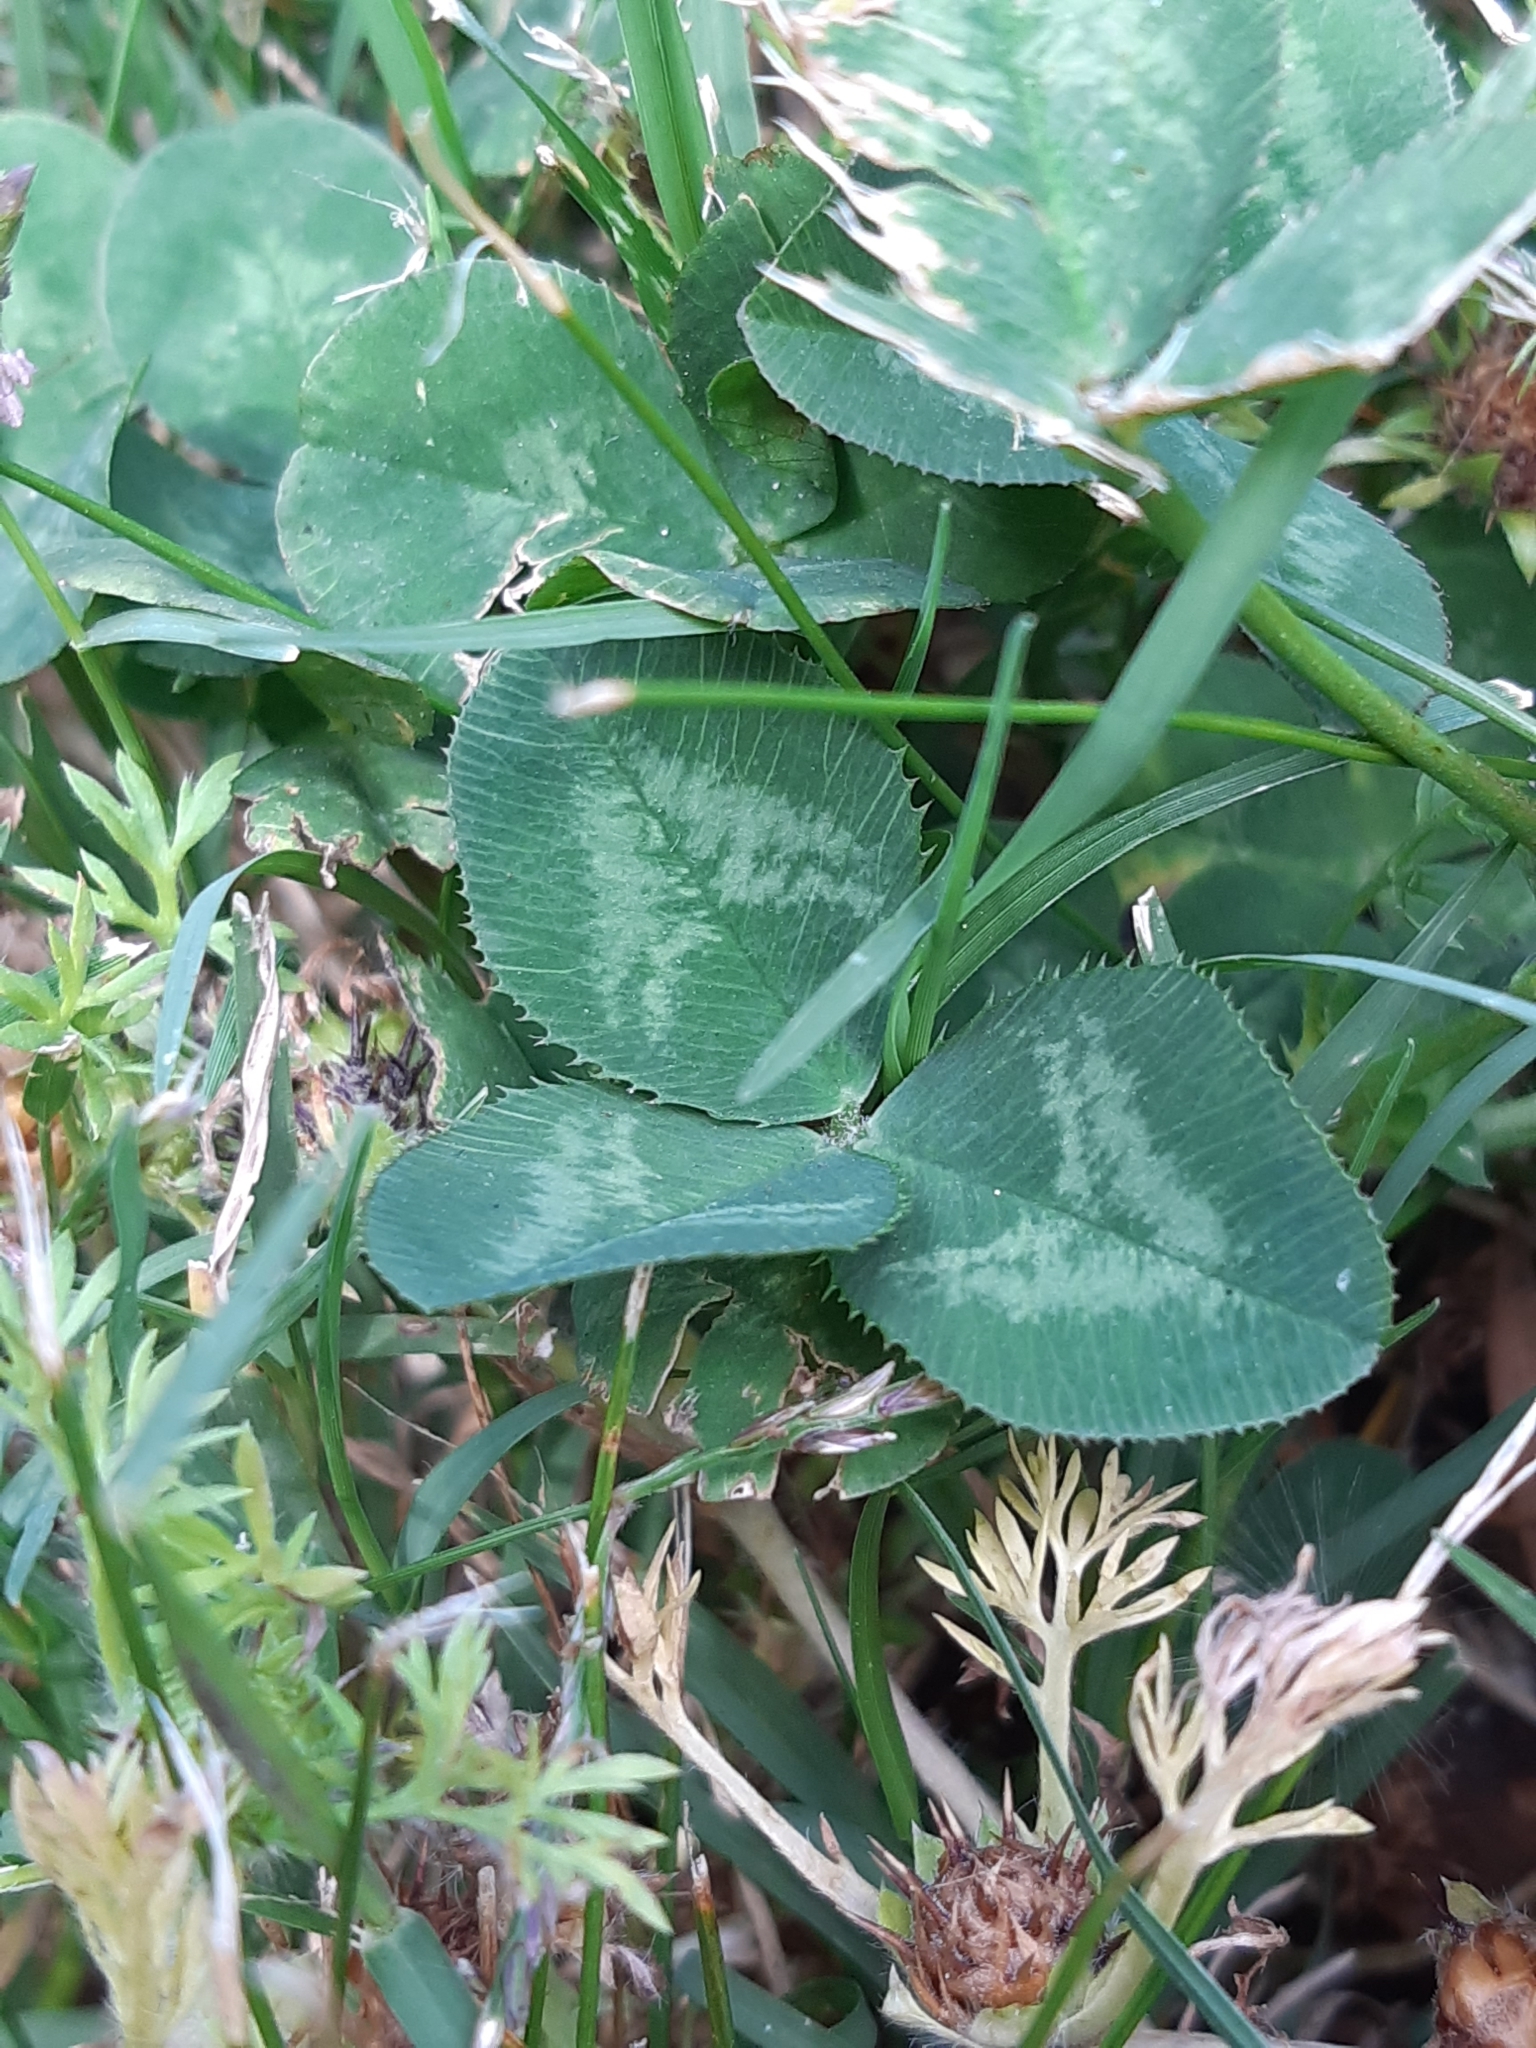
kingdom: Plantae
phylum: Tracheophyta
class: Magnoliopsida
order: Fabales
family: Fabaceae
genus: Trifolium
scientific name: Trifolium repens
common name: White clover
